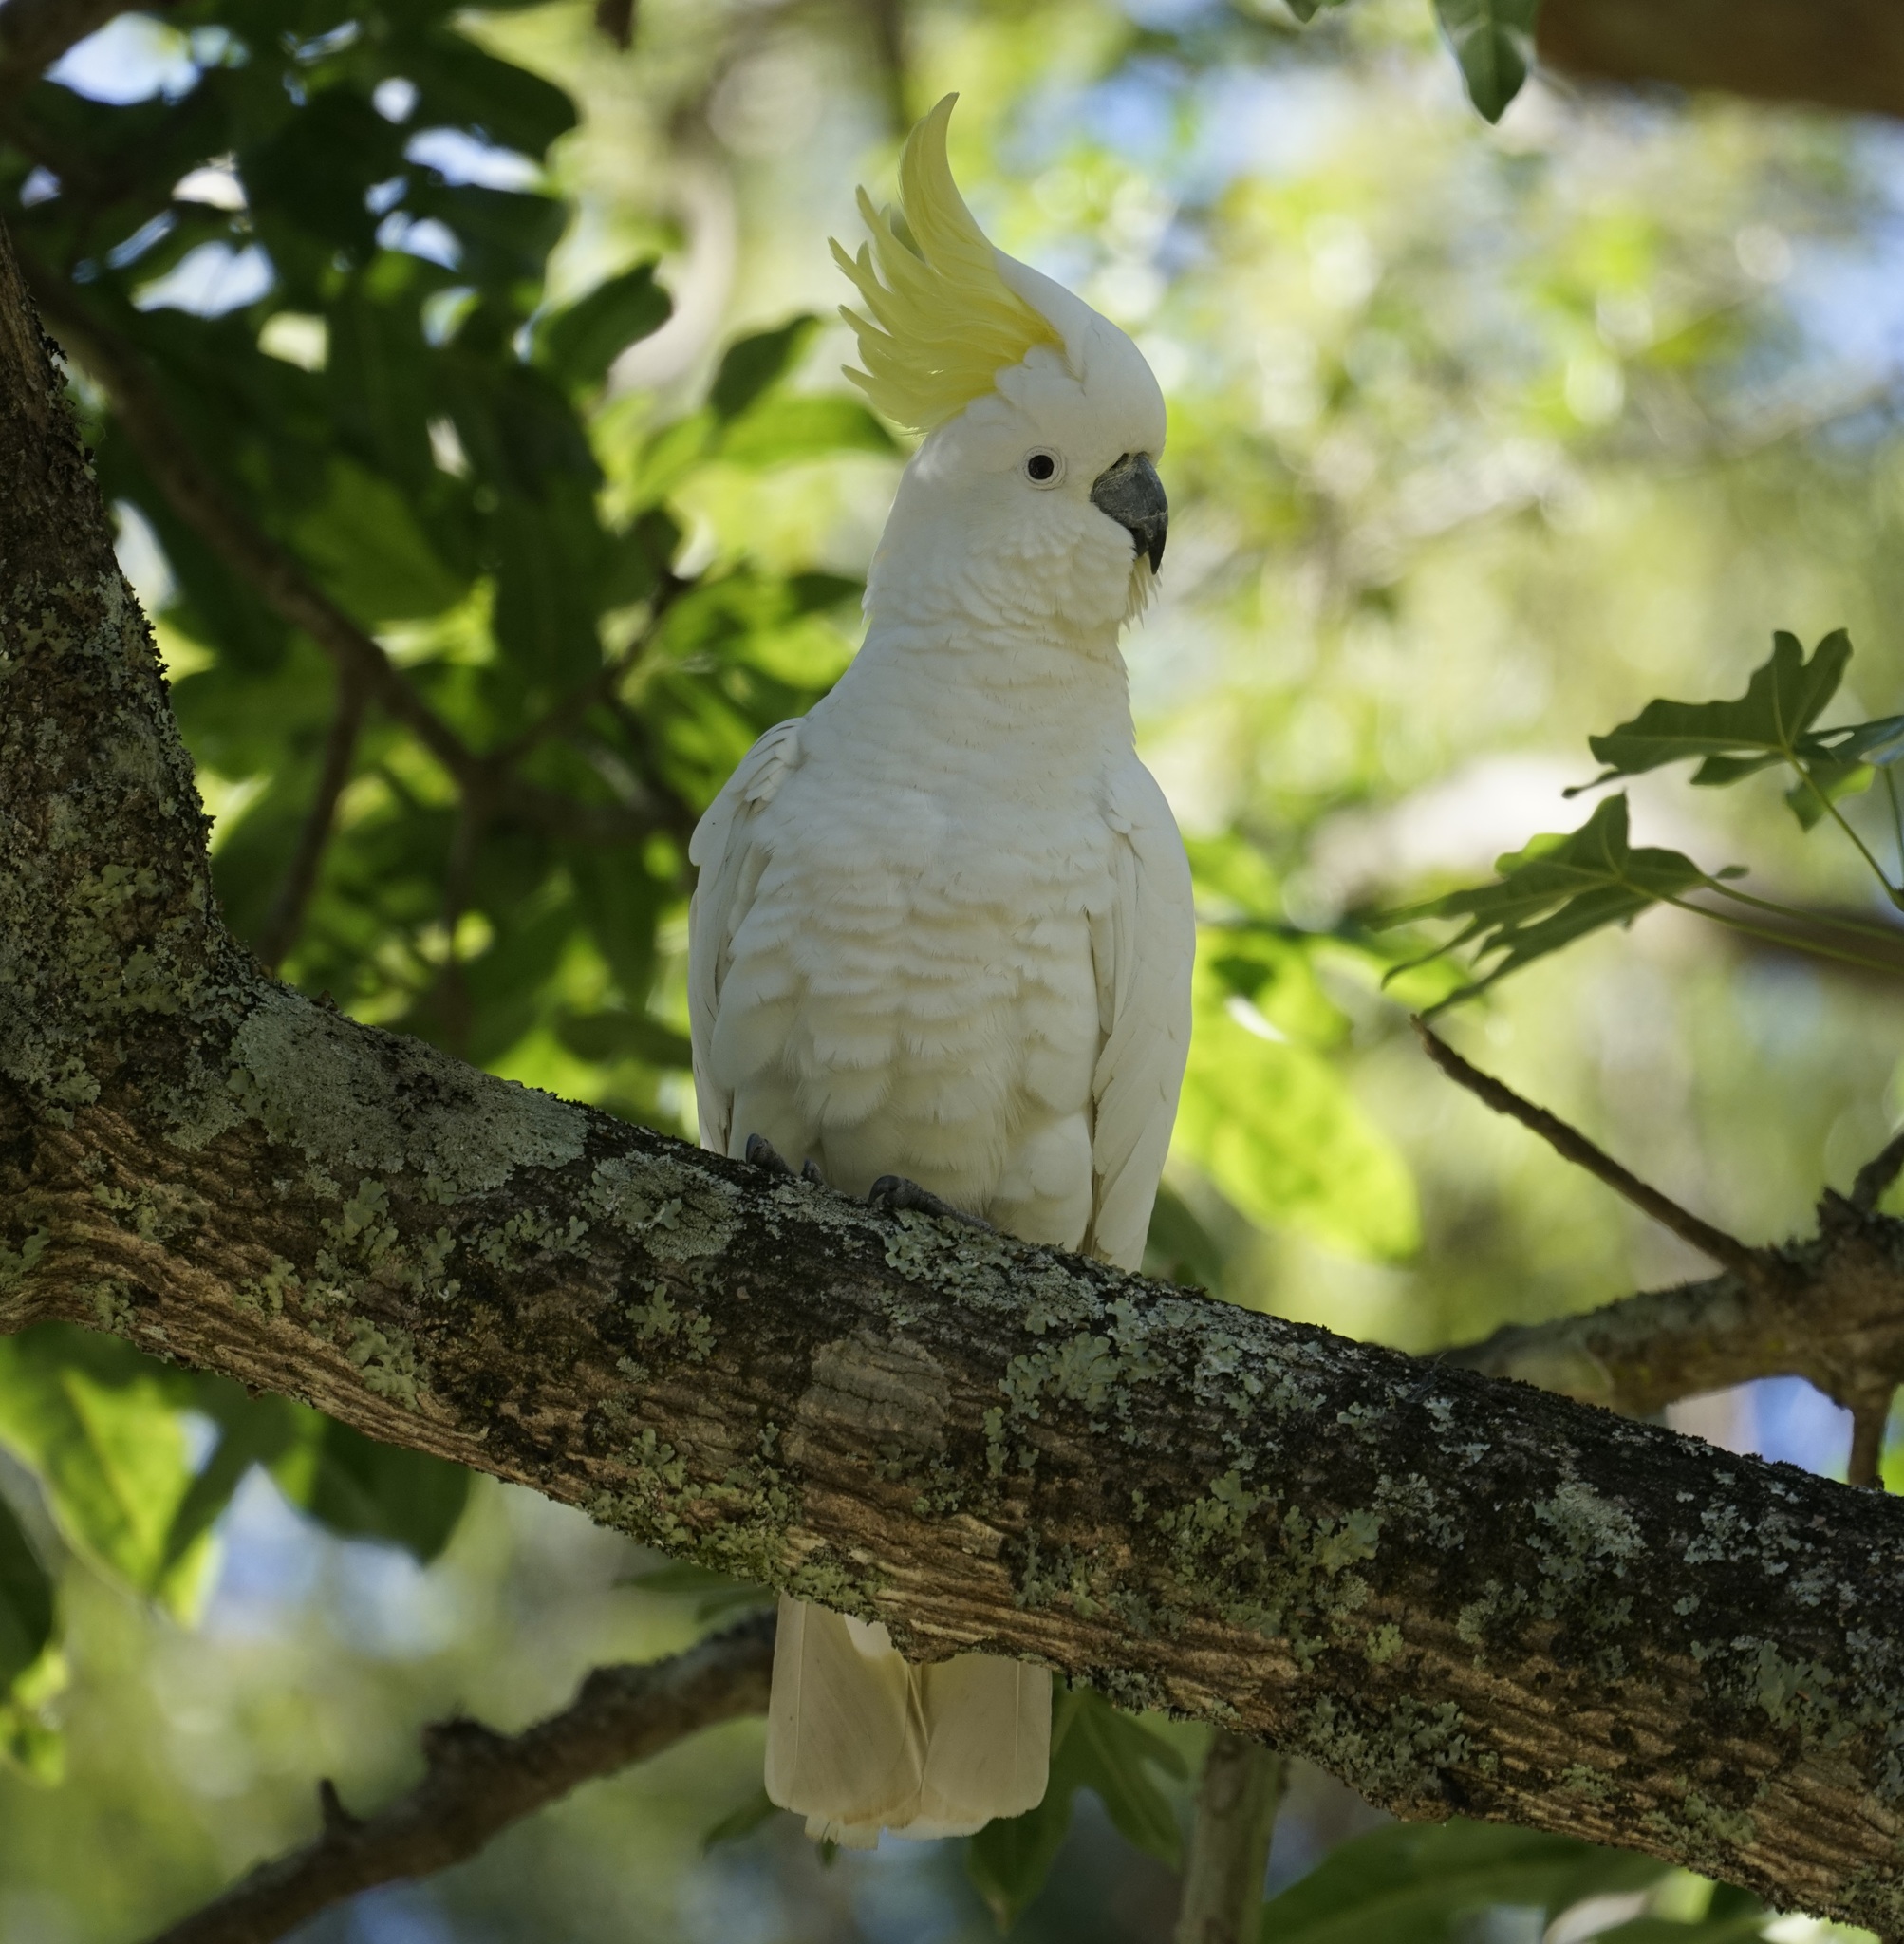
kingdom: Animalia
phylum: Chordata
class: Aves
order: Psittaciformes
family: Psittacidae
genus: Cacatua
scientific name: Cacatua galerita
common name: Sulphur-crested cockatoo
